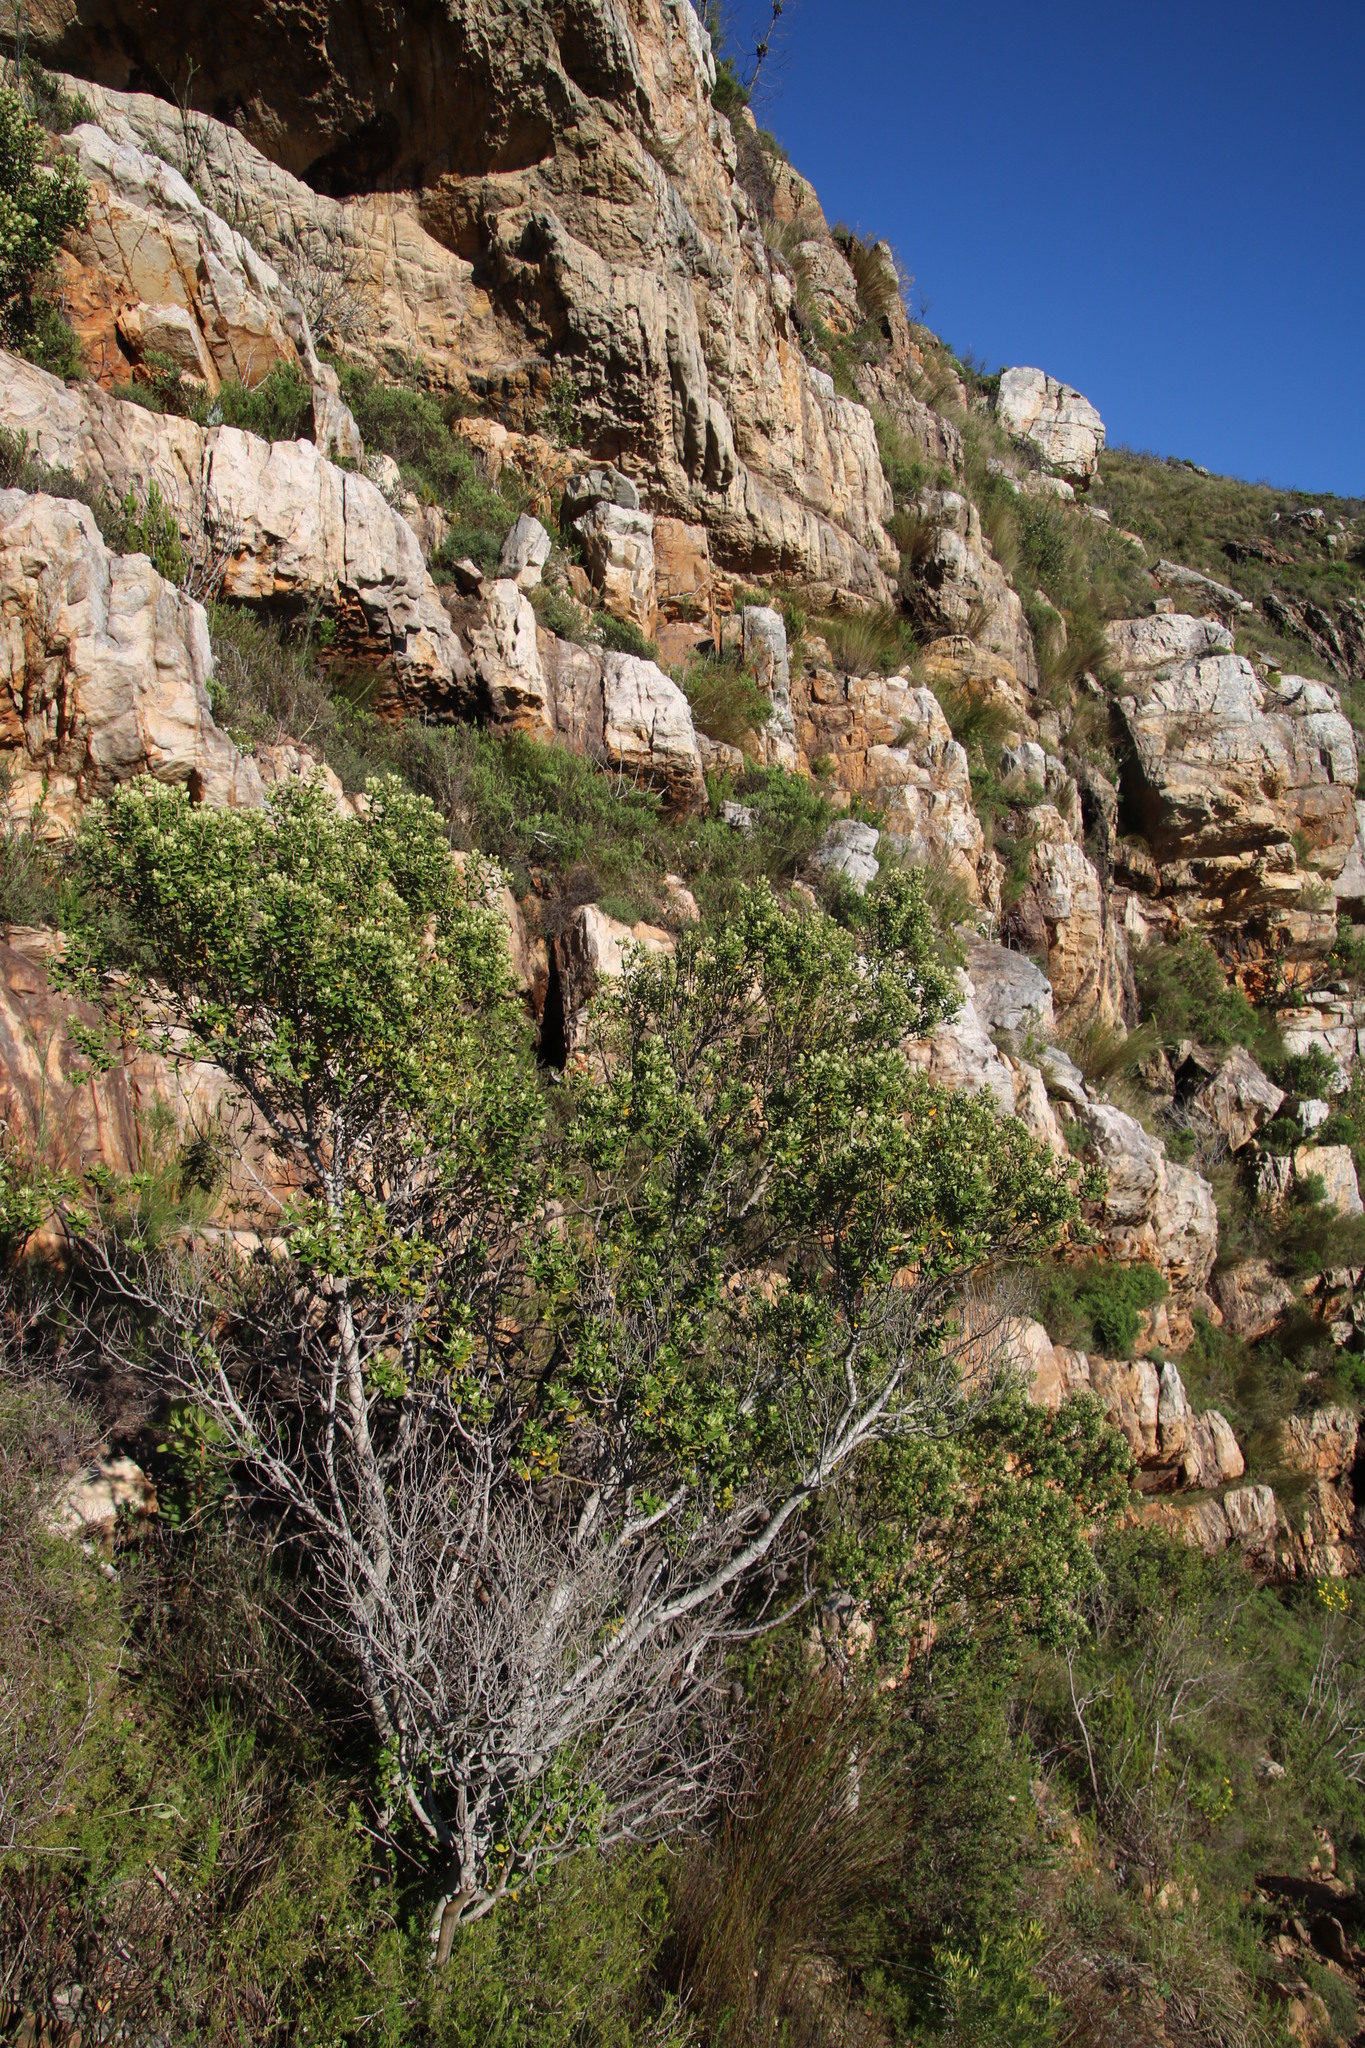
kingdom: Plantae
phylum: Tracheophyta
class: Magnoliopsida
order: Rosales
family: Rhamnaceae
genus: Phylica
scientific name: Phylica buxifolia
